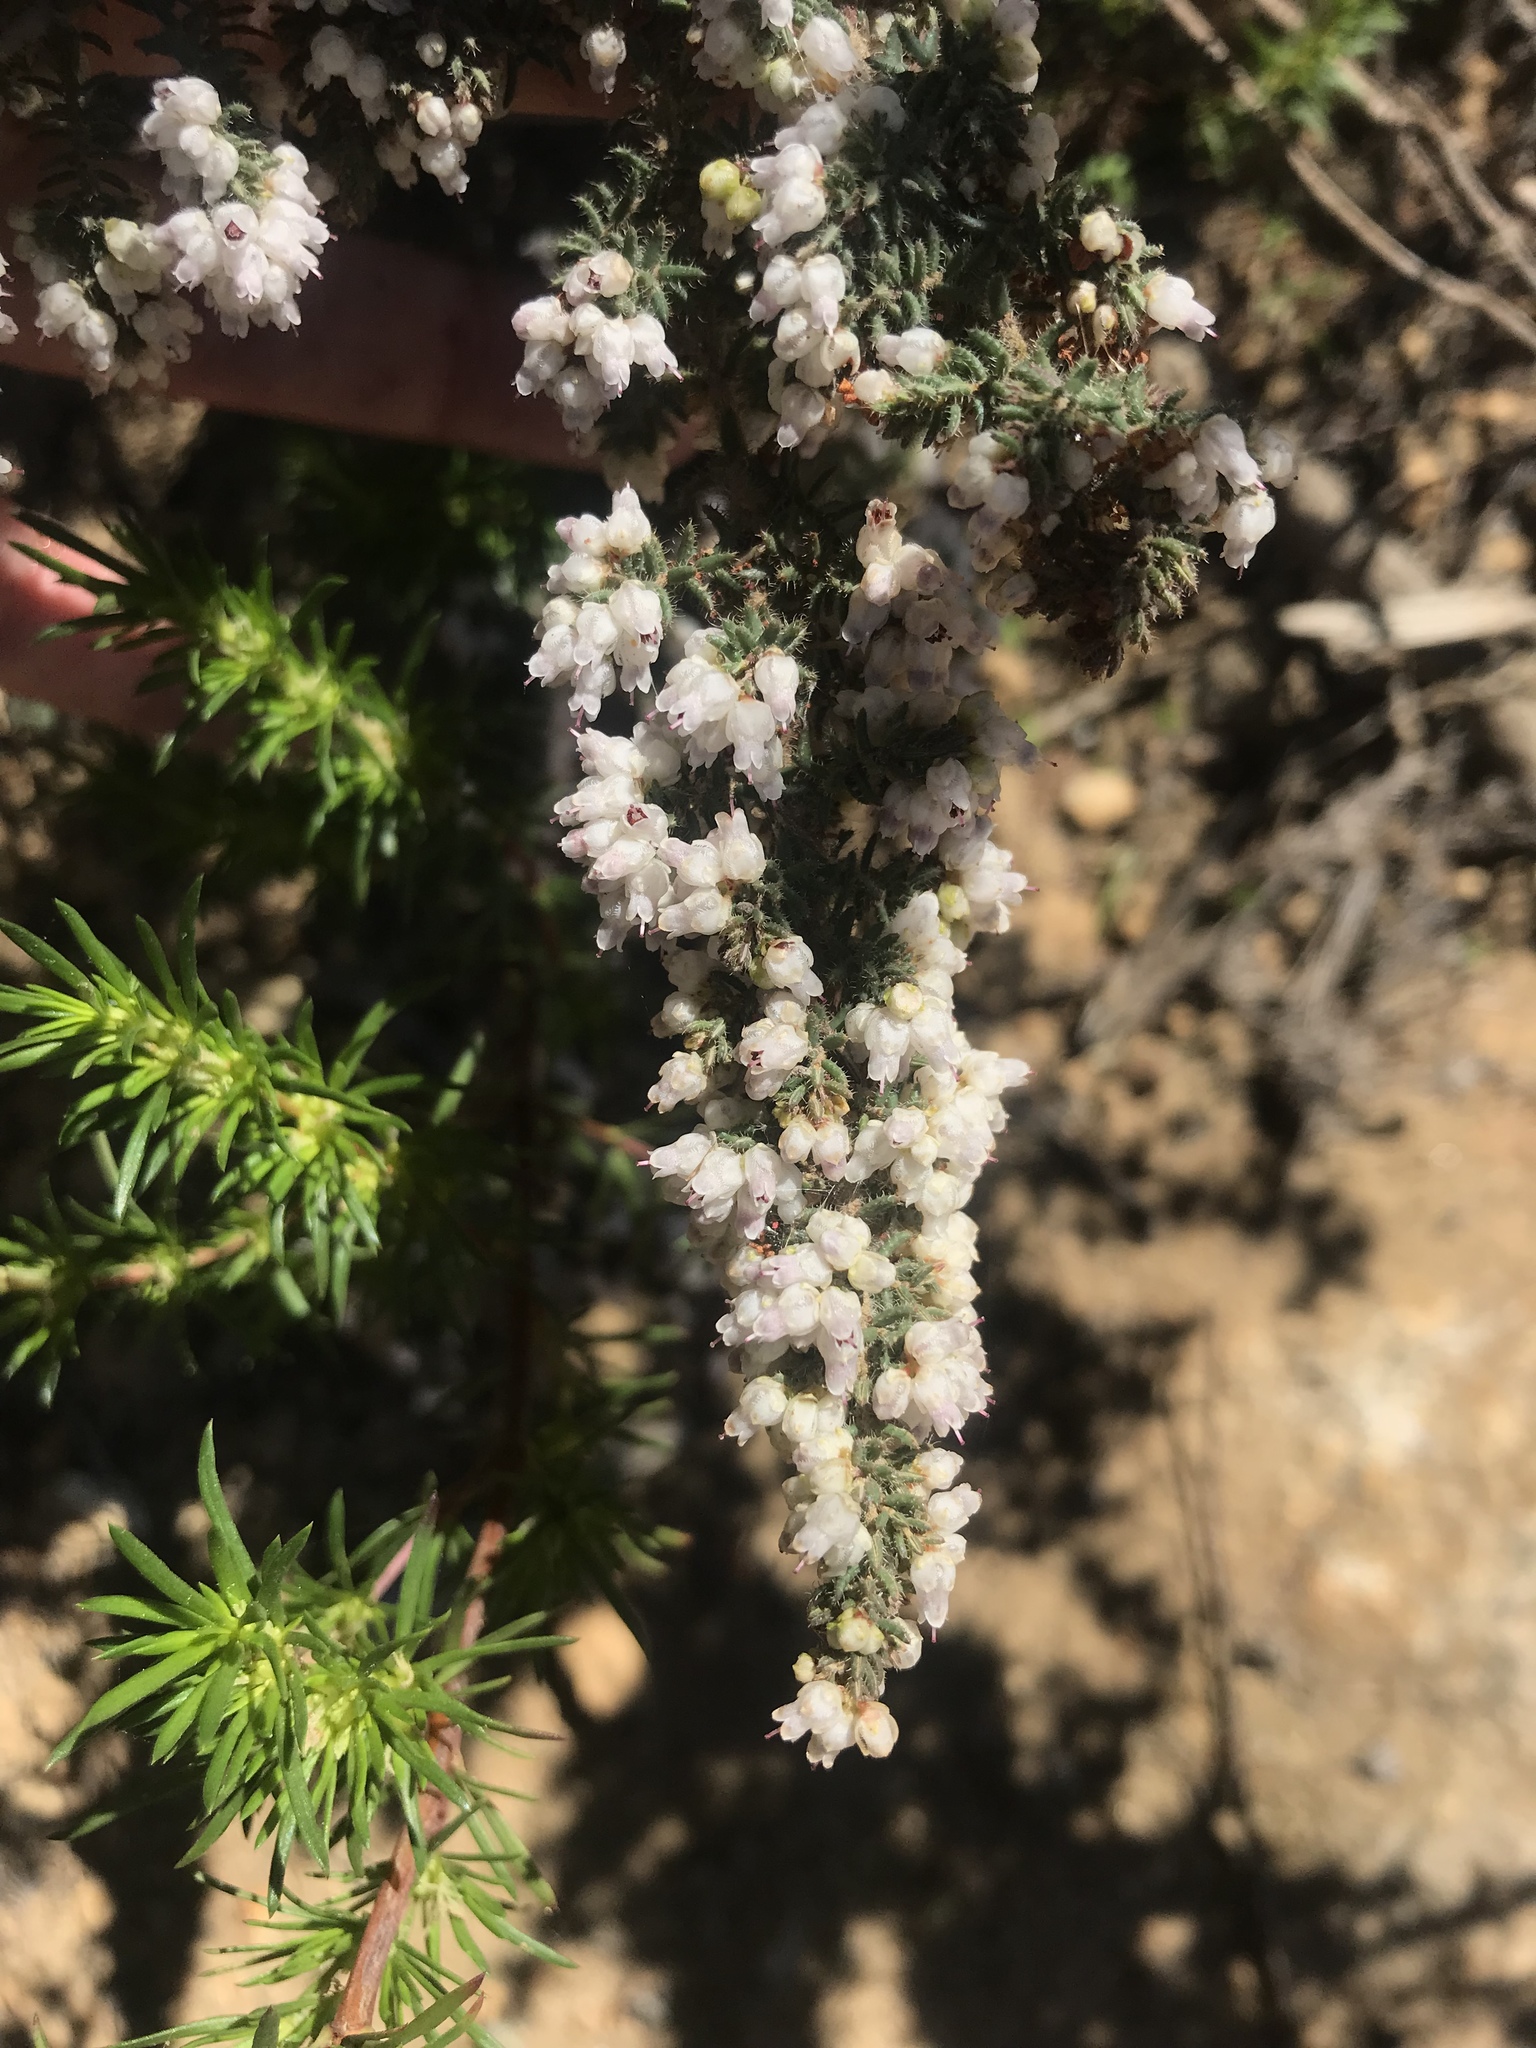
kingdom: Plantae
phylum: Tracheophyta
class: Magnoliopsida
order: Ericales
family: Ericaceae
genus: Erica
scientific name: Erica totta
